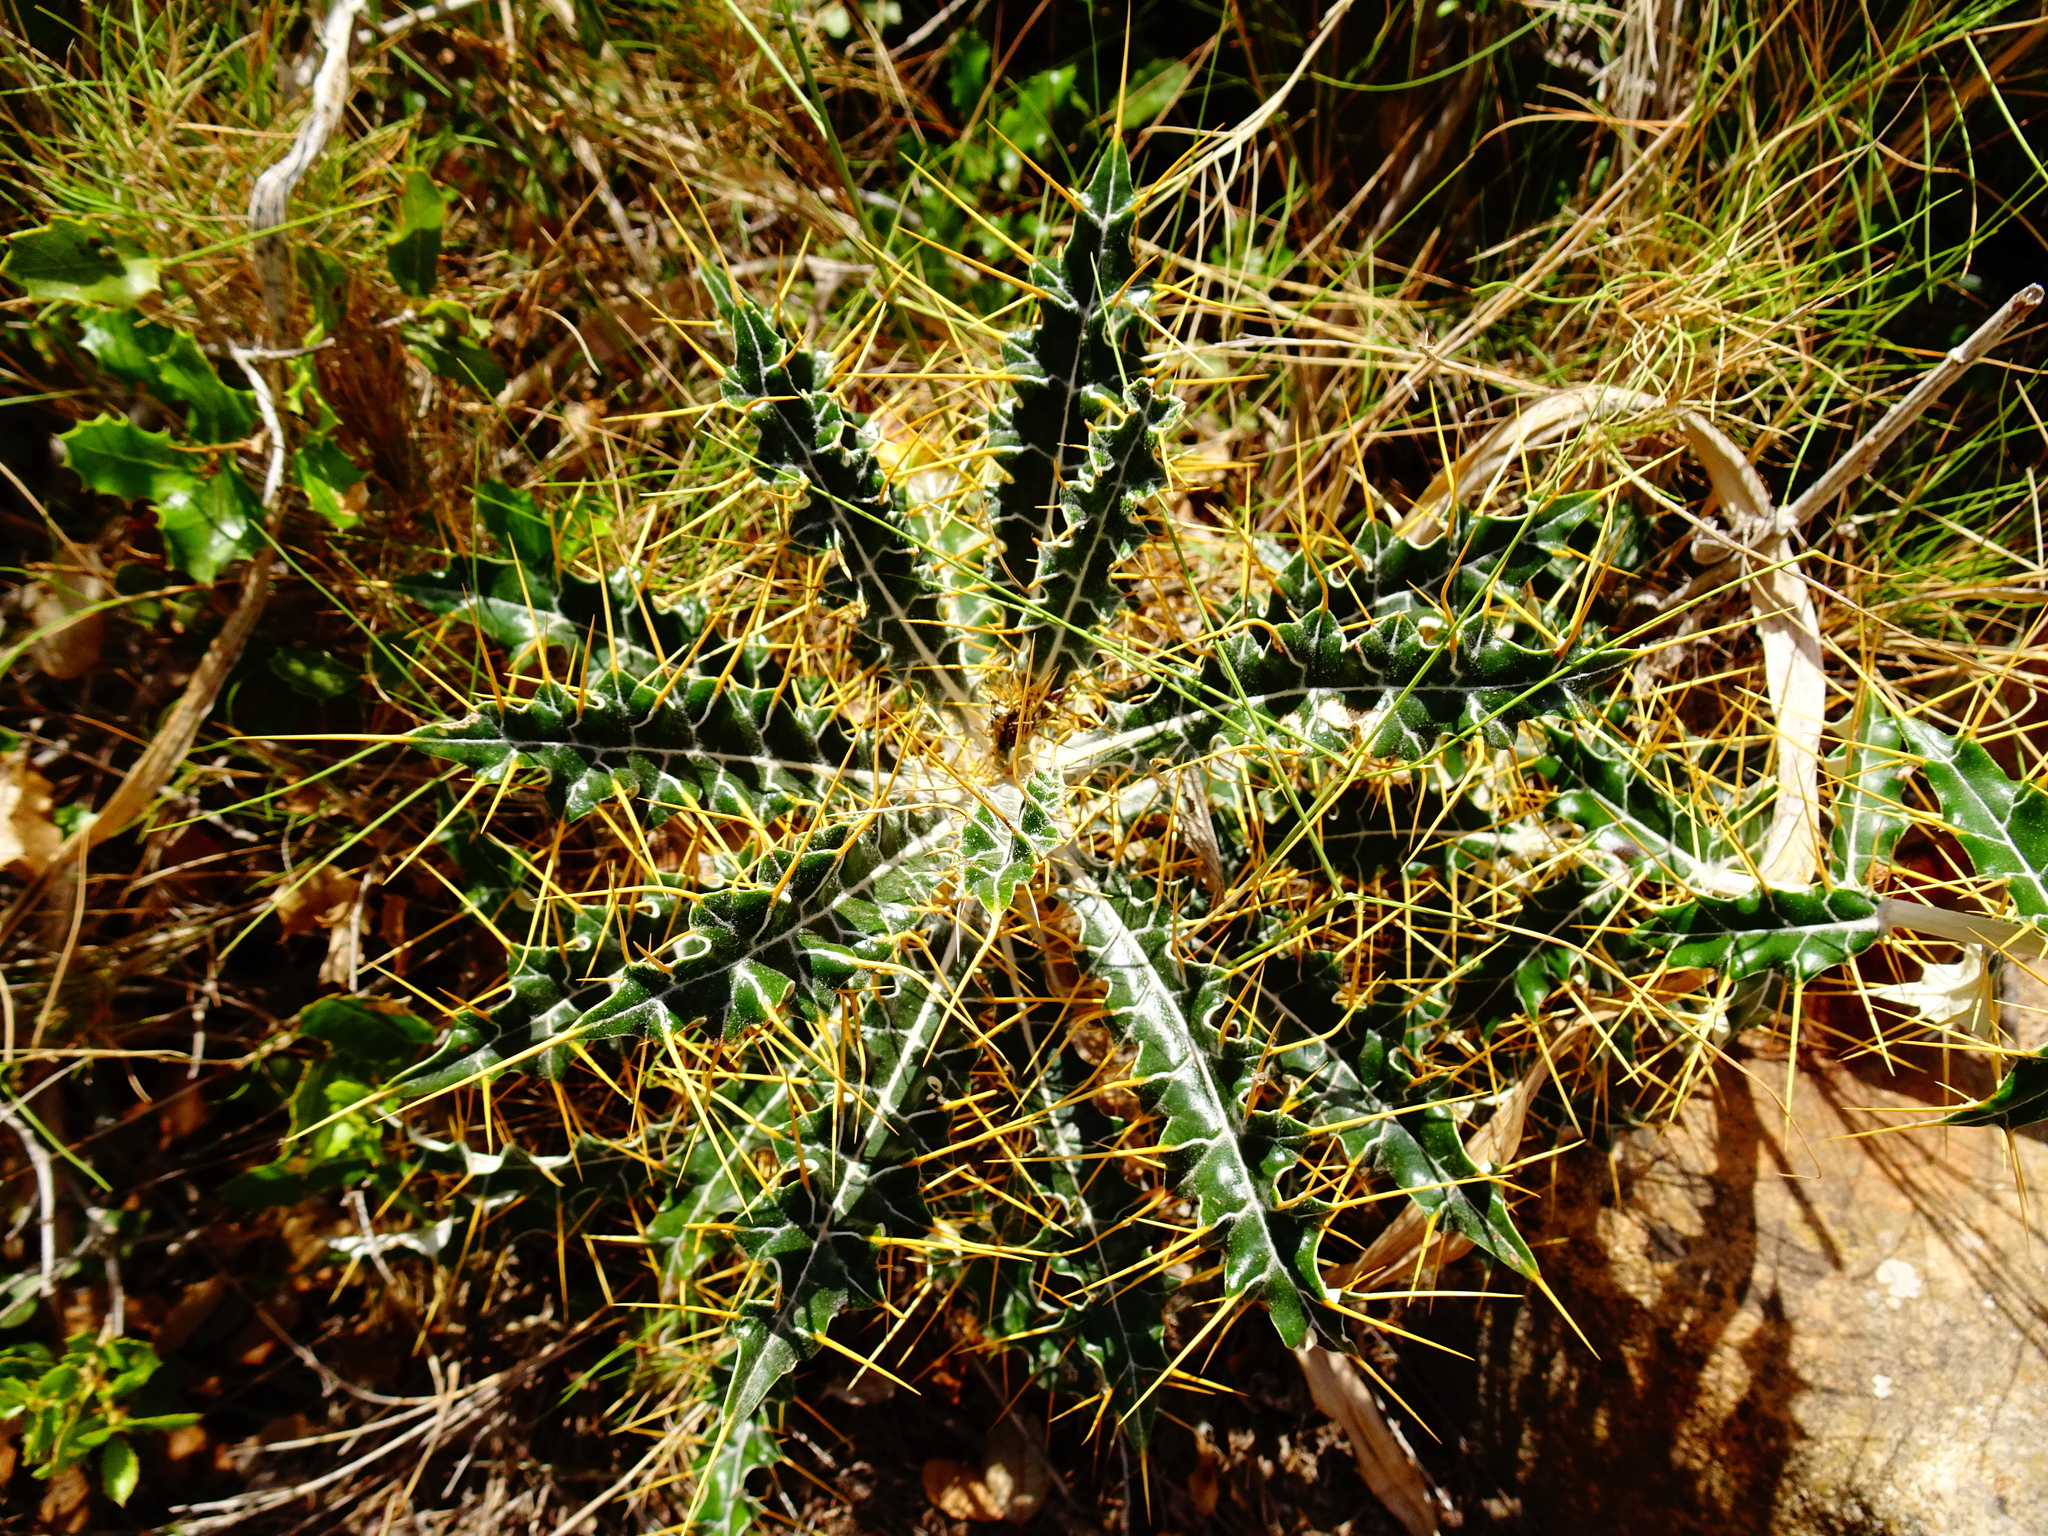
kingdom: Plantae
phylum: Tracheophyta
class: Magnoliopsida
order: Asterales
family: Asteraceae
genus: Ptilostemon
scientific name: Ptilostemon hispanicus
